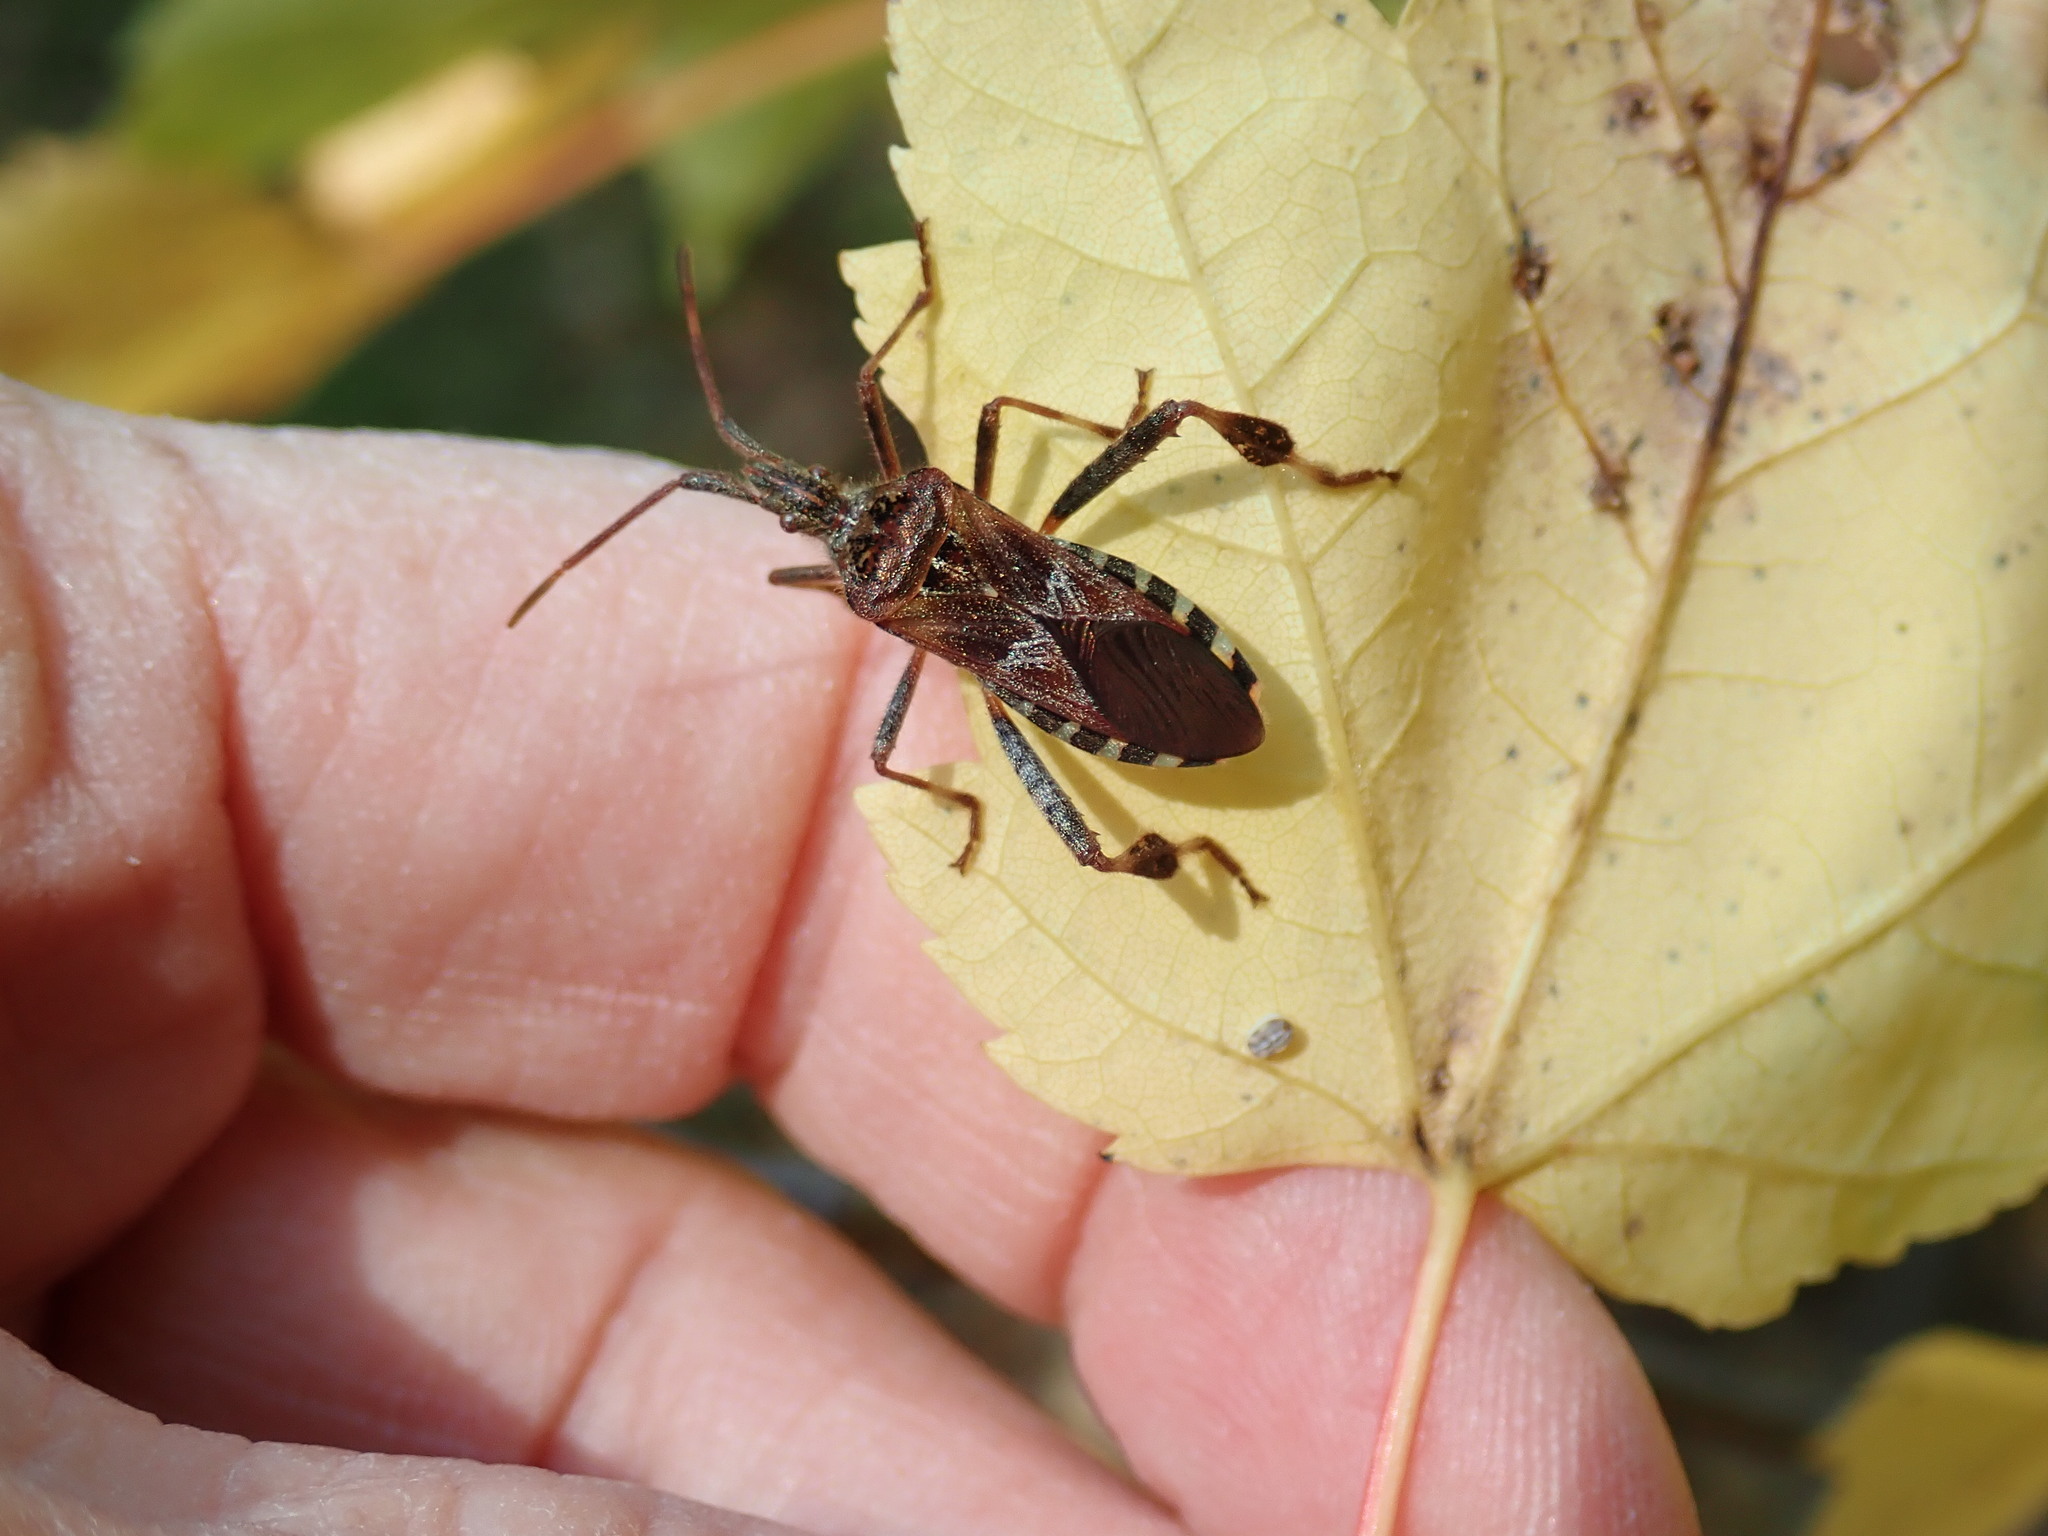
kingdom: Animalia
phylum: Arthropoda
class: Insecta
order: Hemiptera
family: Coreidae
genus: Leptoglossus
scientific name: Leptoglossus occidentalis
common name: Western conifer-seed bug
